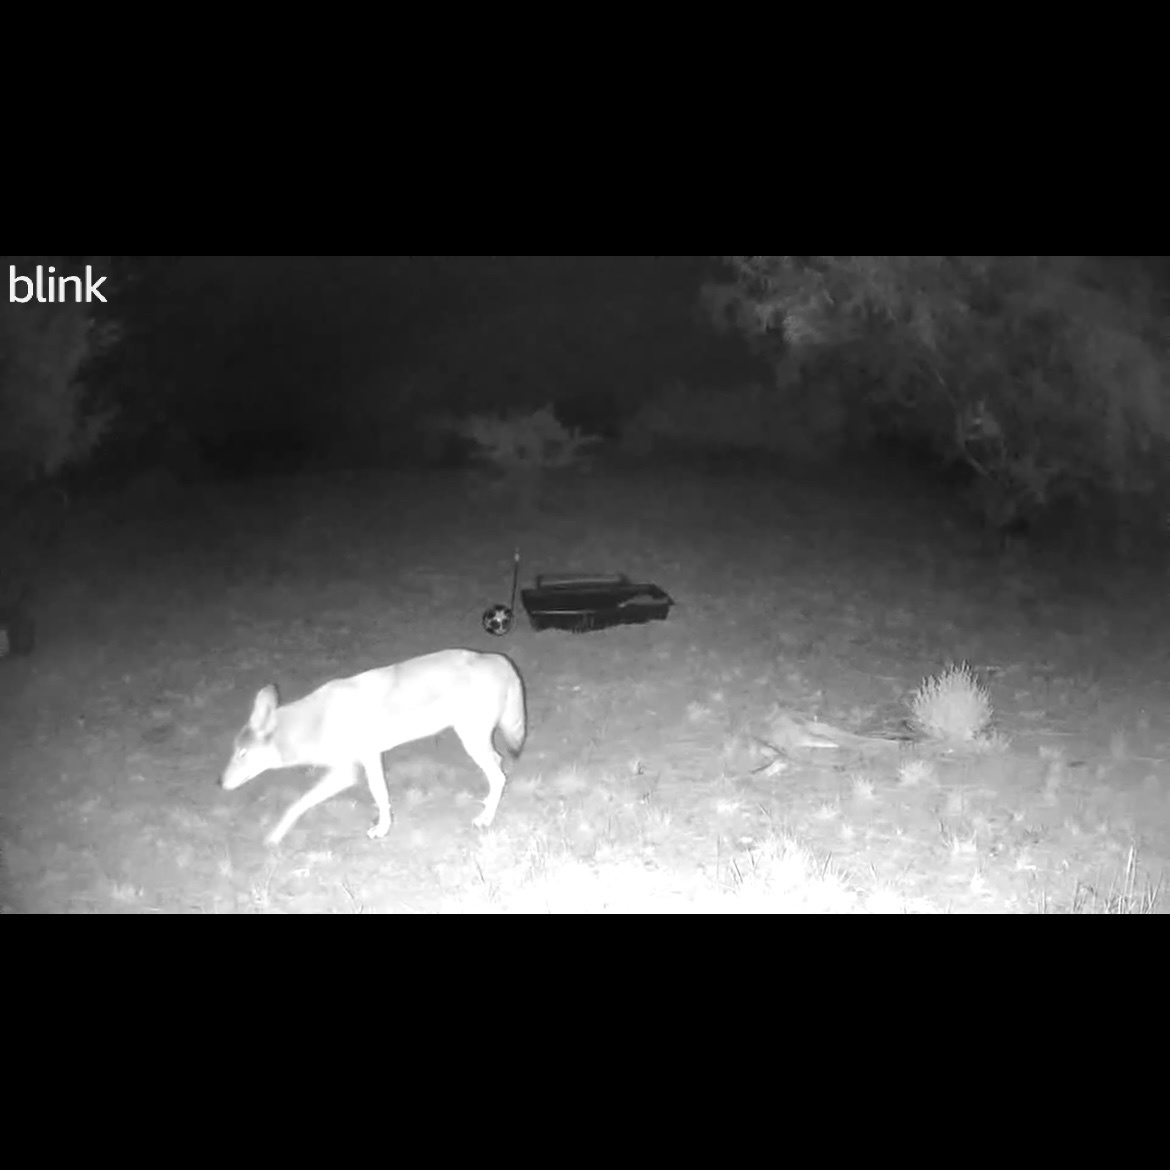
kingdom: Animalia
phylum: Chordata
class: Mammalia
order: Carnivora
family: Canidae
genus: Canis
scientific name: Canis latrans
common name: Coyote
